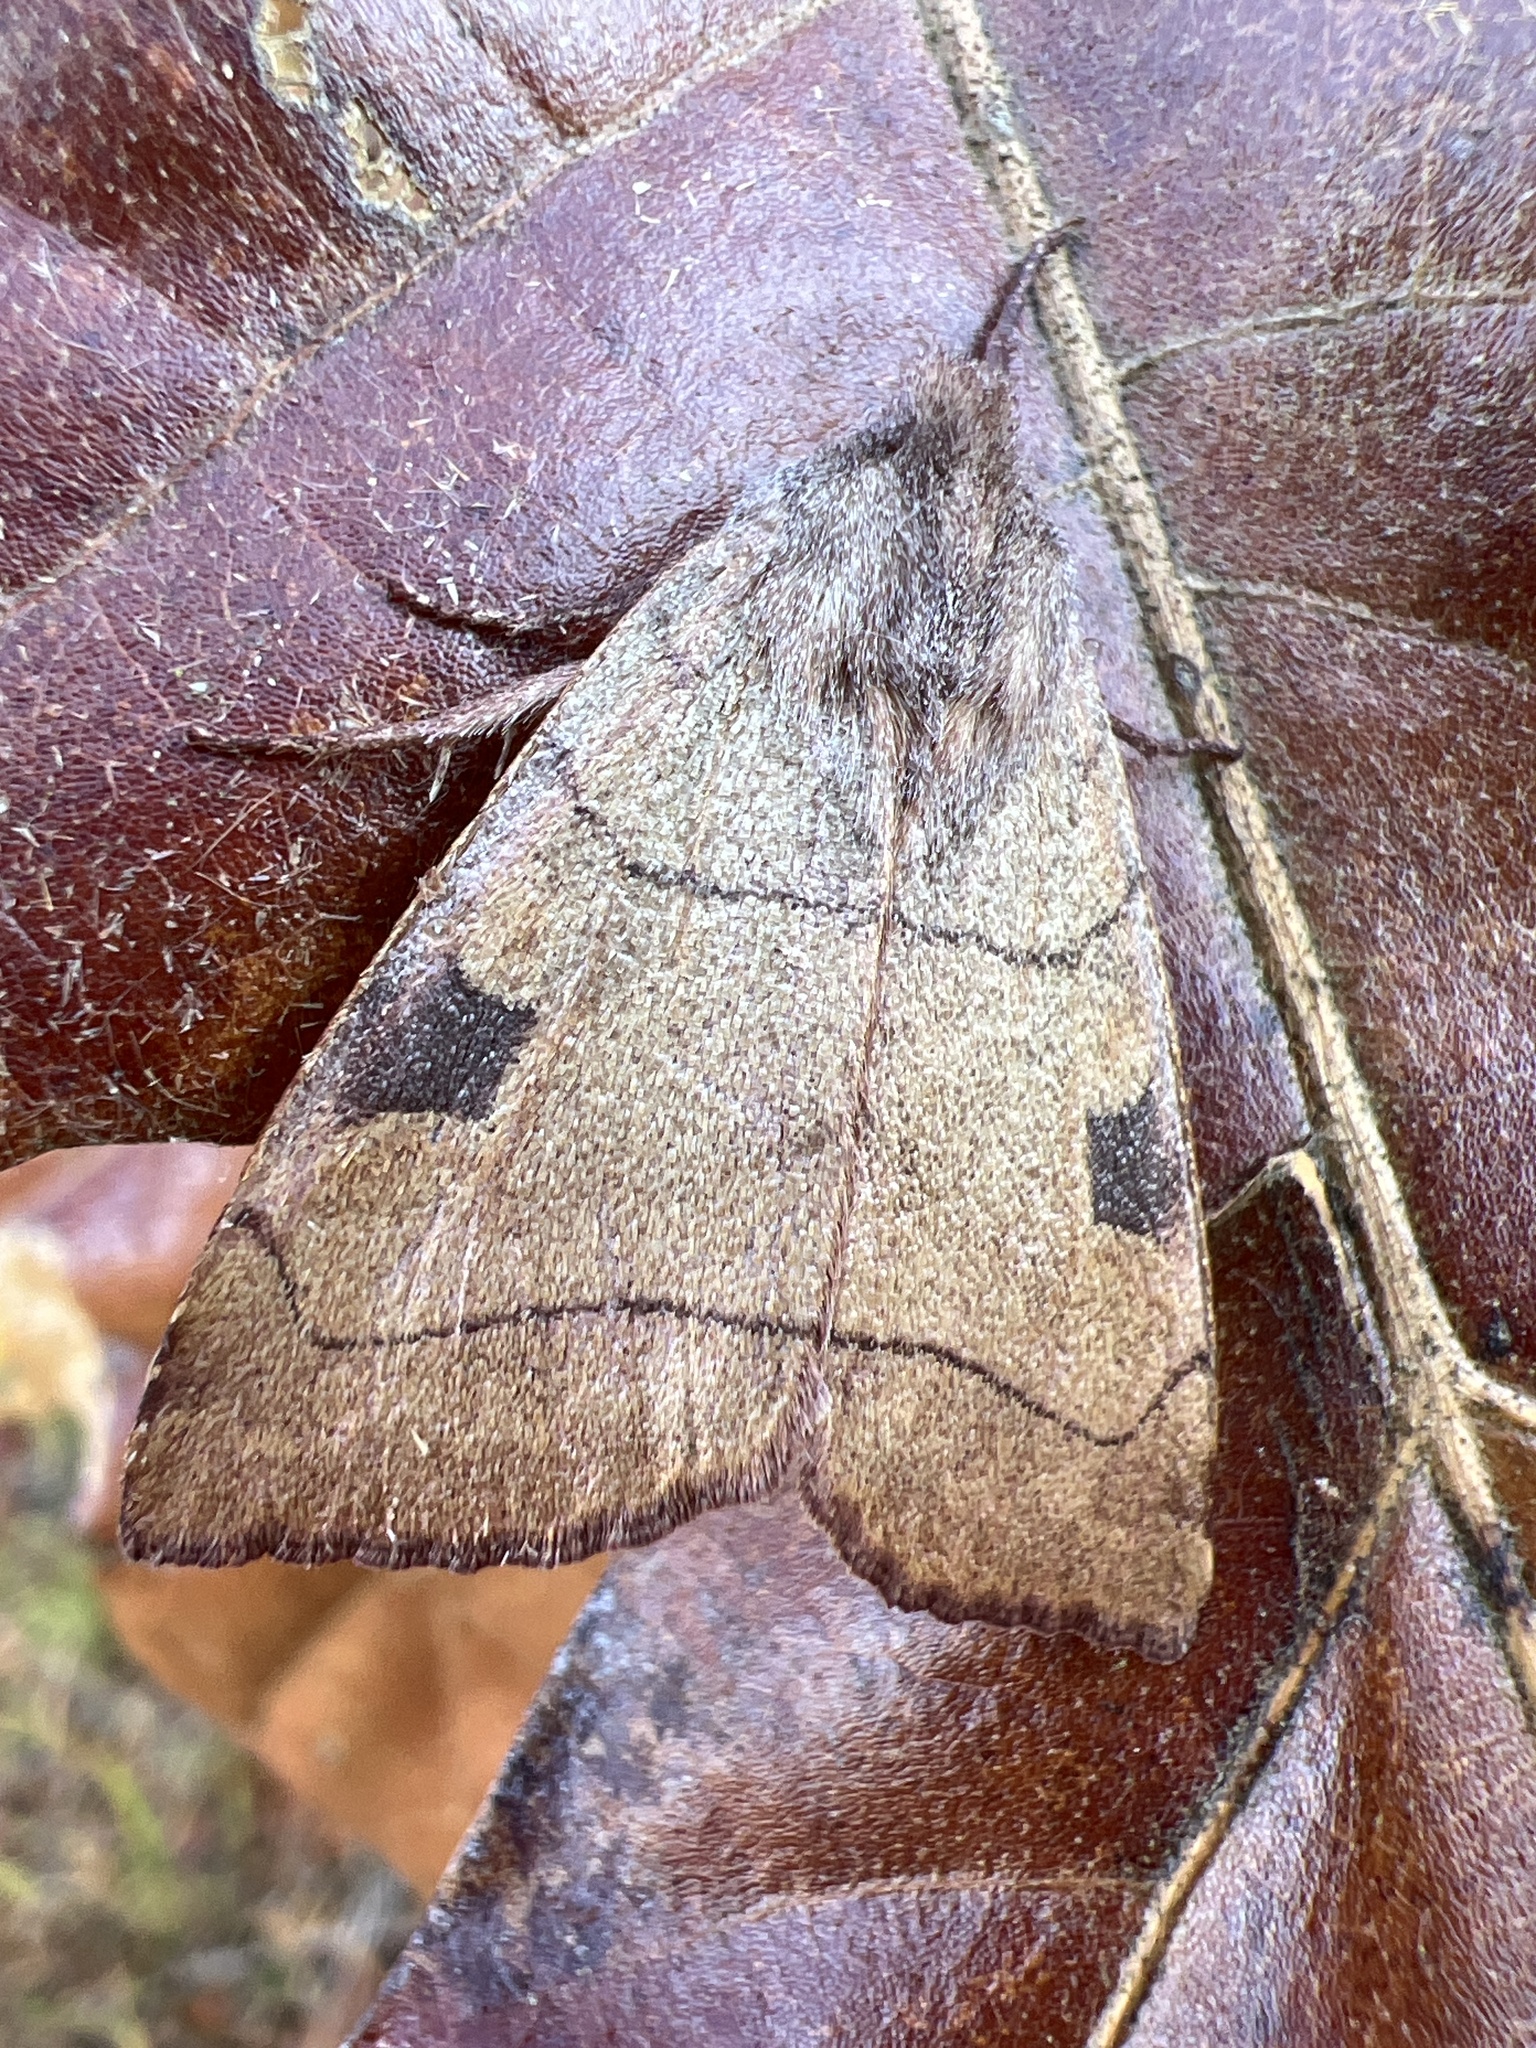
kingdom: Animalia
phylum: Arthropoda
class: Insecta
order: Lepidoptera
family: Noctuidae
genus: Choephora
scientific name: Choephora fungorum
